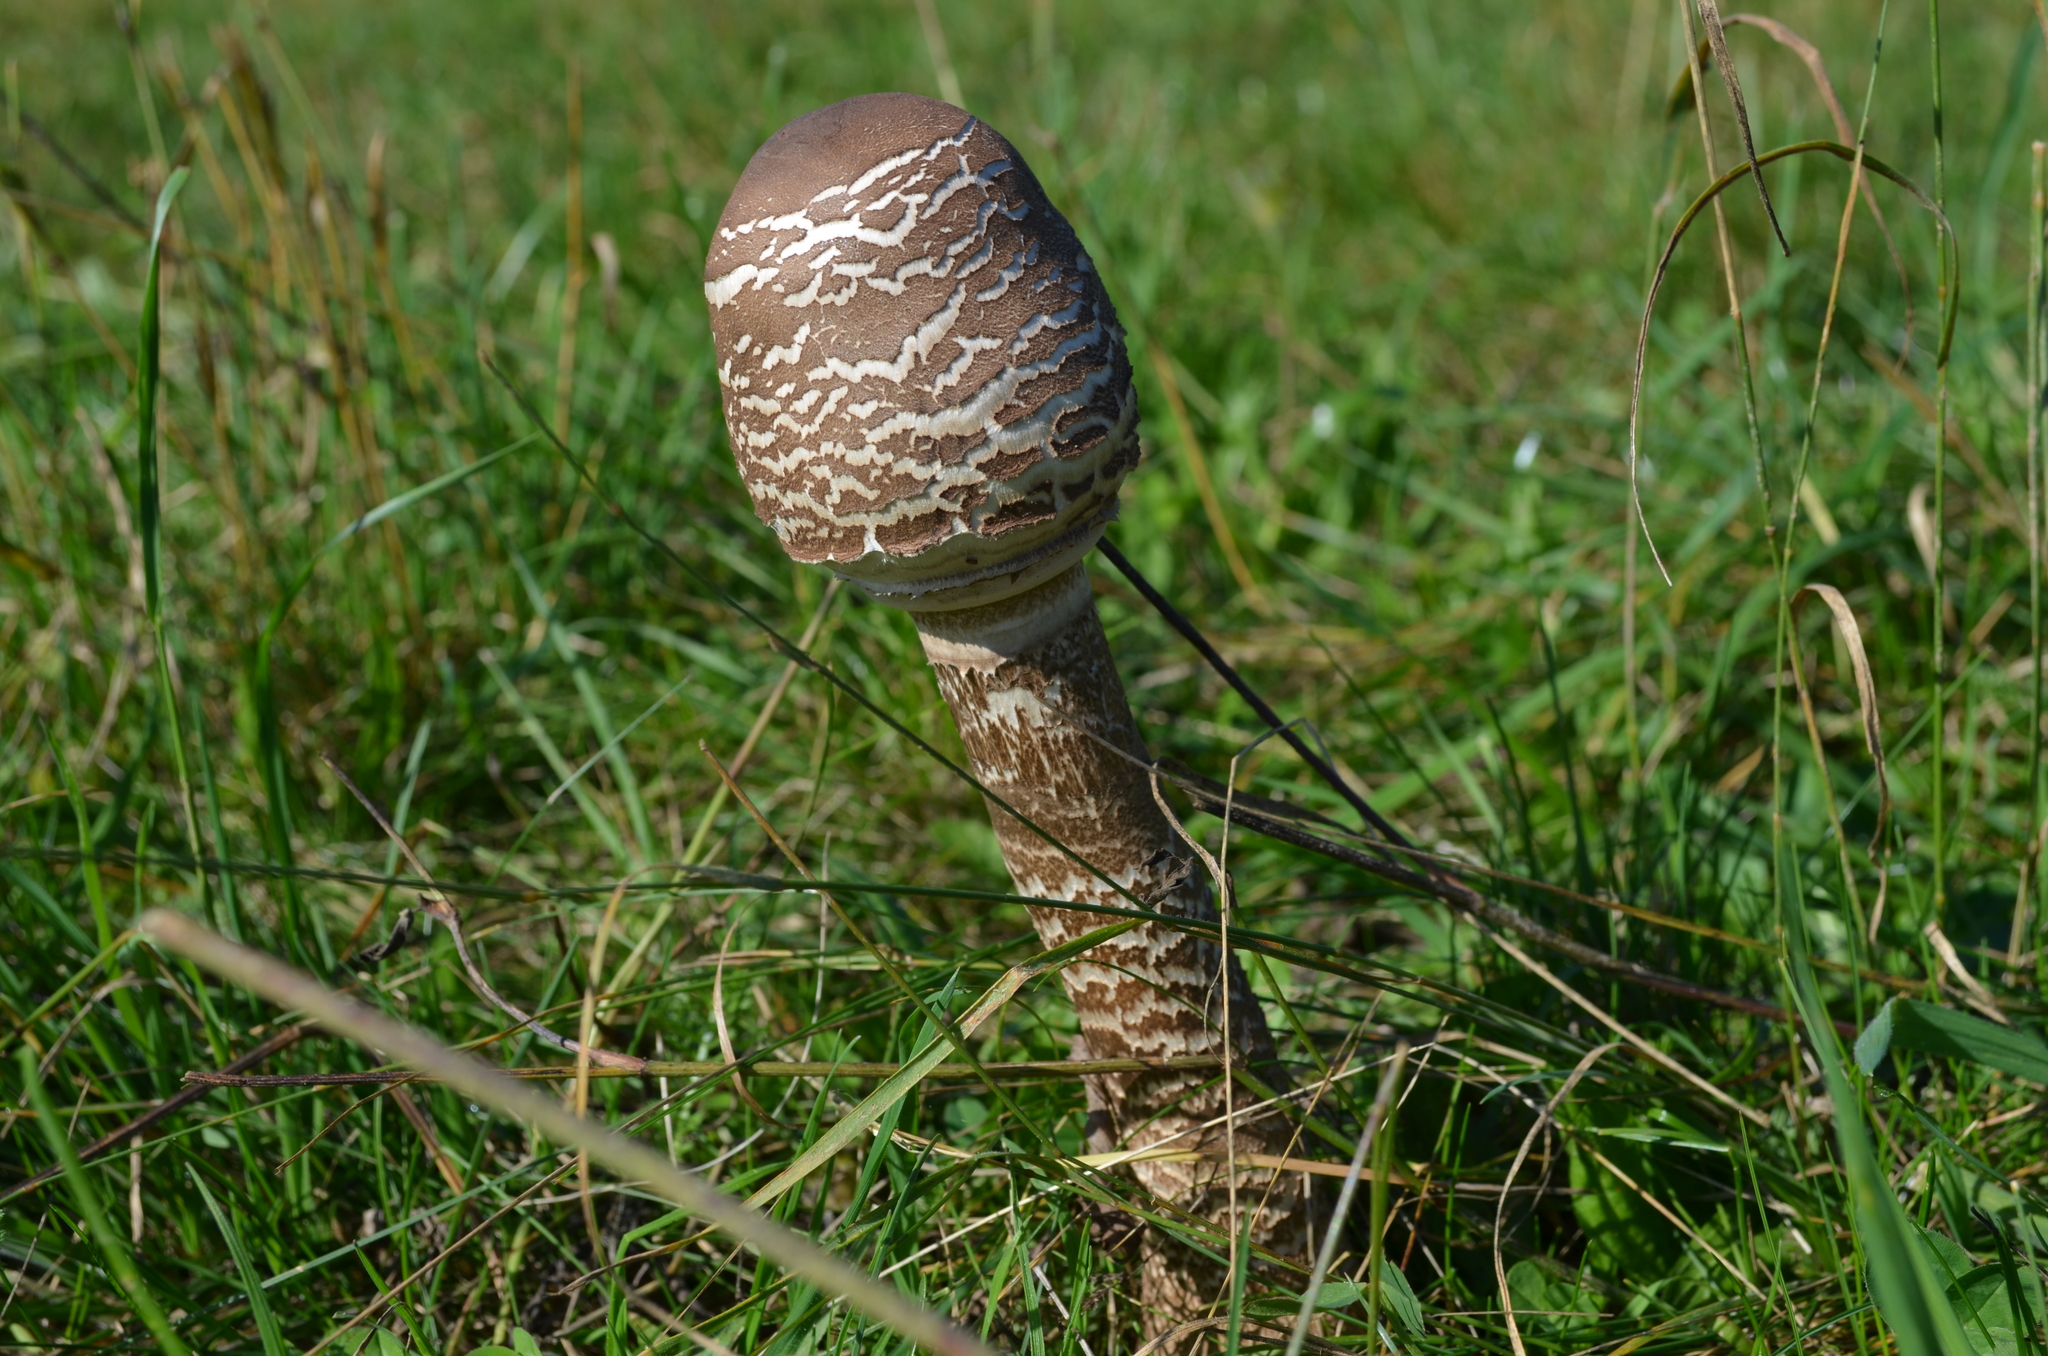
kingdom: Fungi
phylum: Basidiomycota
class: Agaricomycetes
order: Agaricales
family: Agaricaceae
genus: Macrolepiota
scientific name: Macrolepiota procera
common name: Parasol
